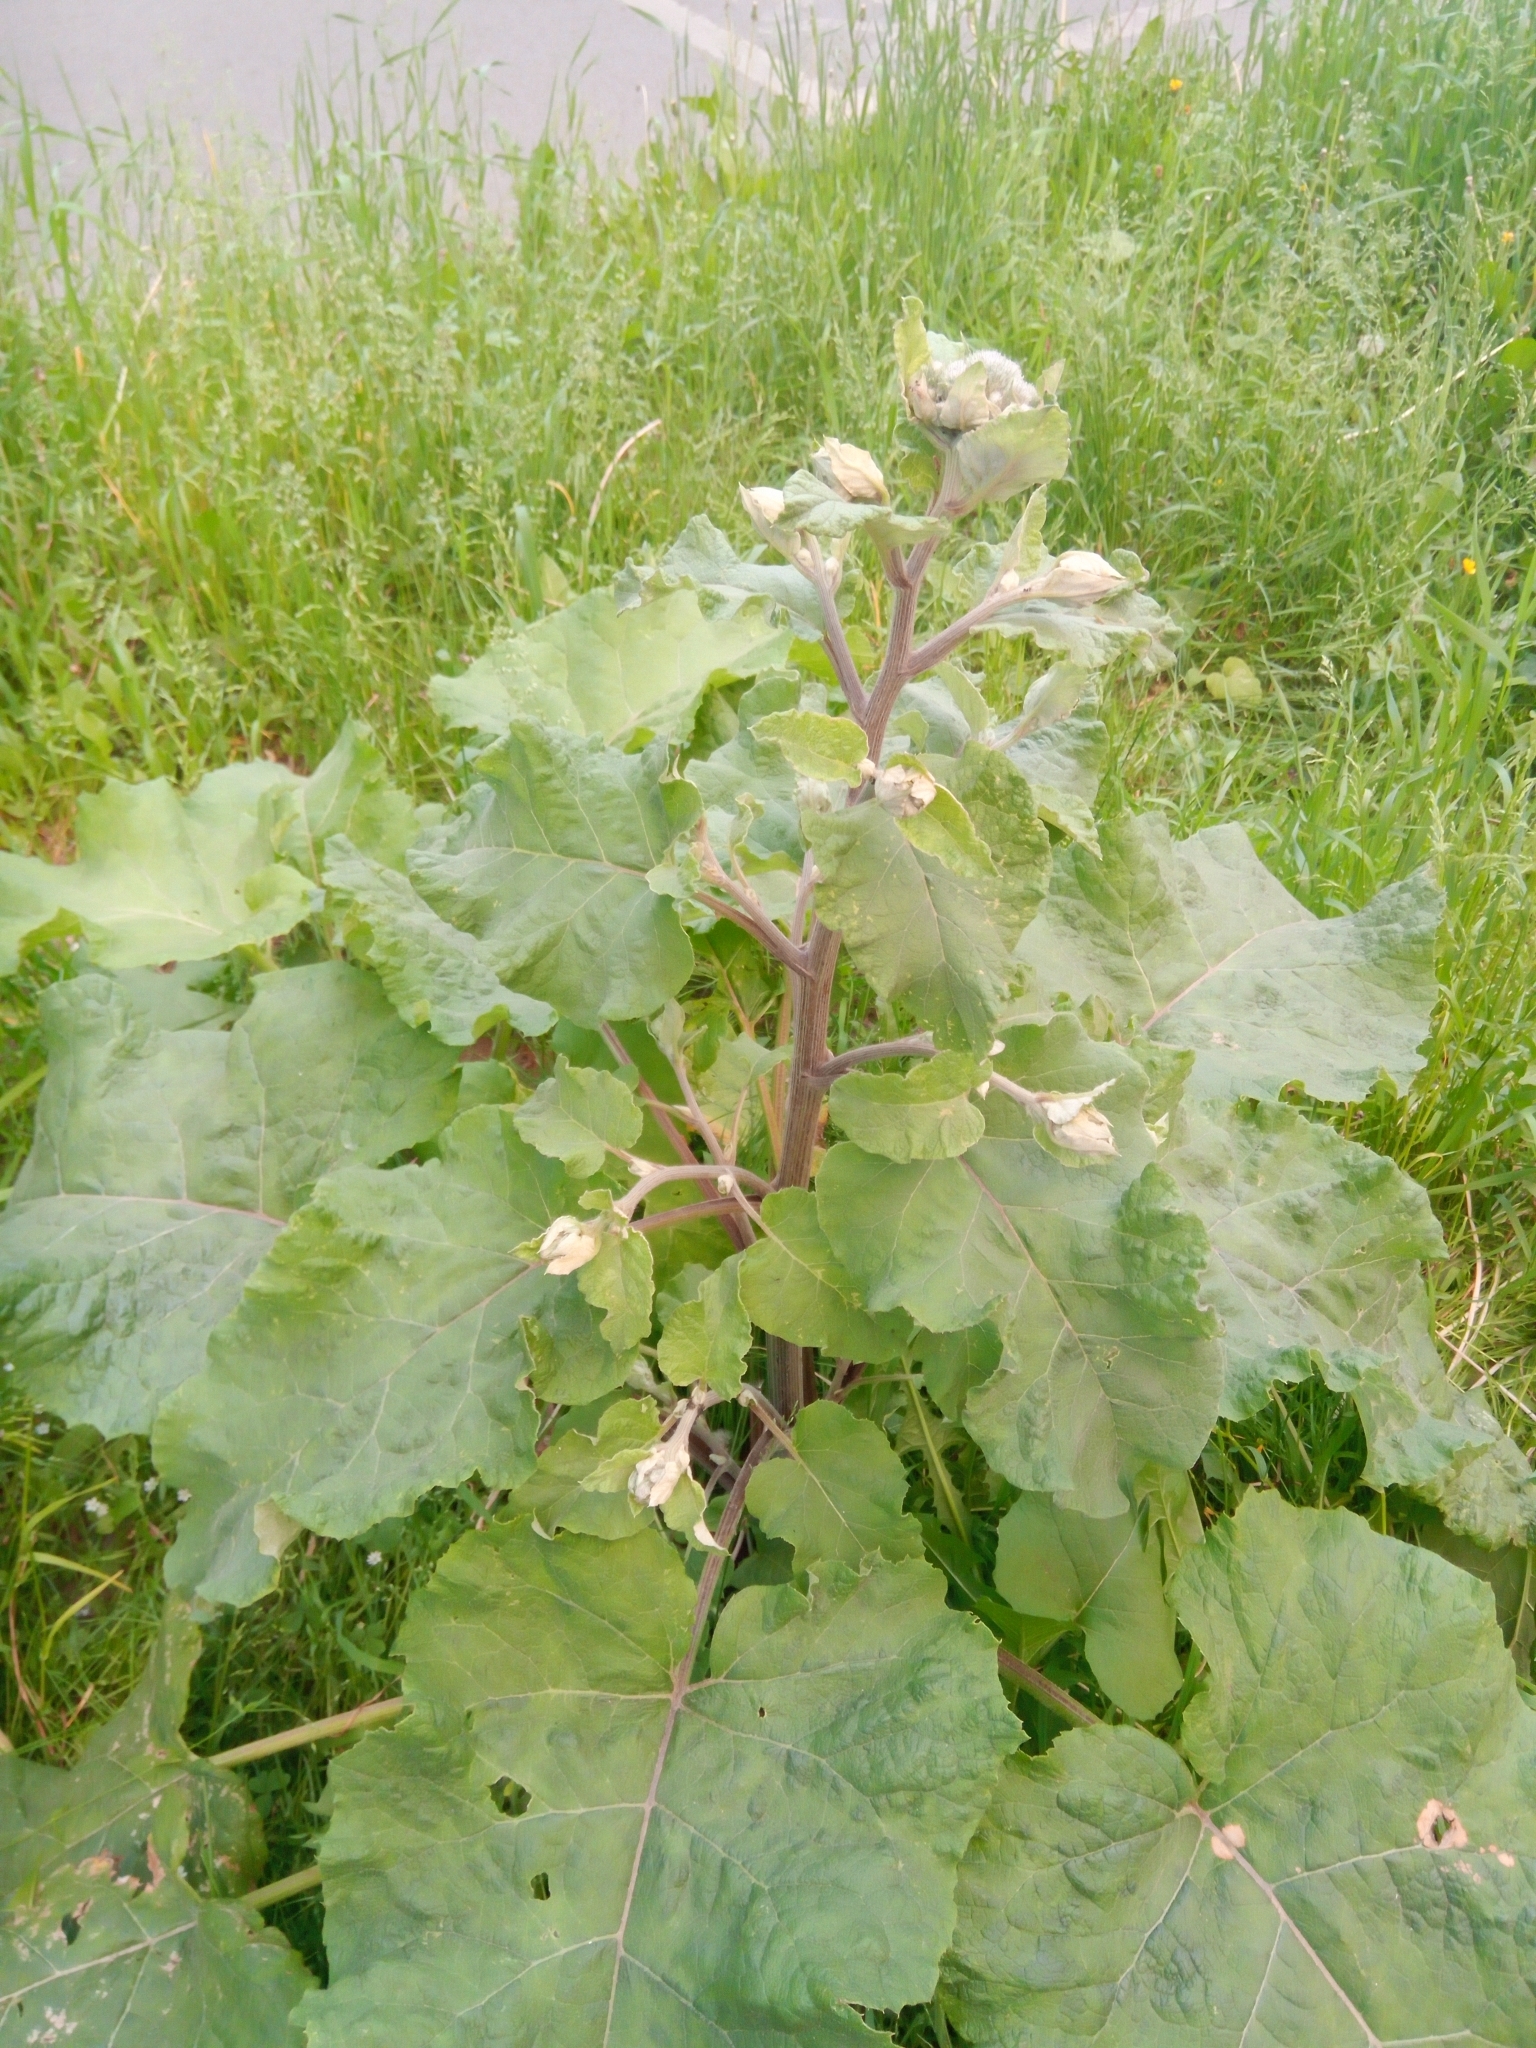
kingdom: Plantae
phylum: Tracheophyta
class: Magnoliopsida
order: Asterales
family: Asteraceae
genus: Arctium
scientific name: Arctium tomentosum
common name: Woolly burdock
